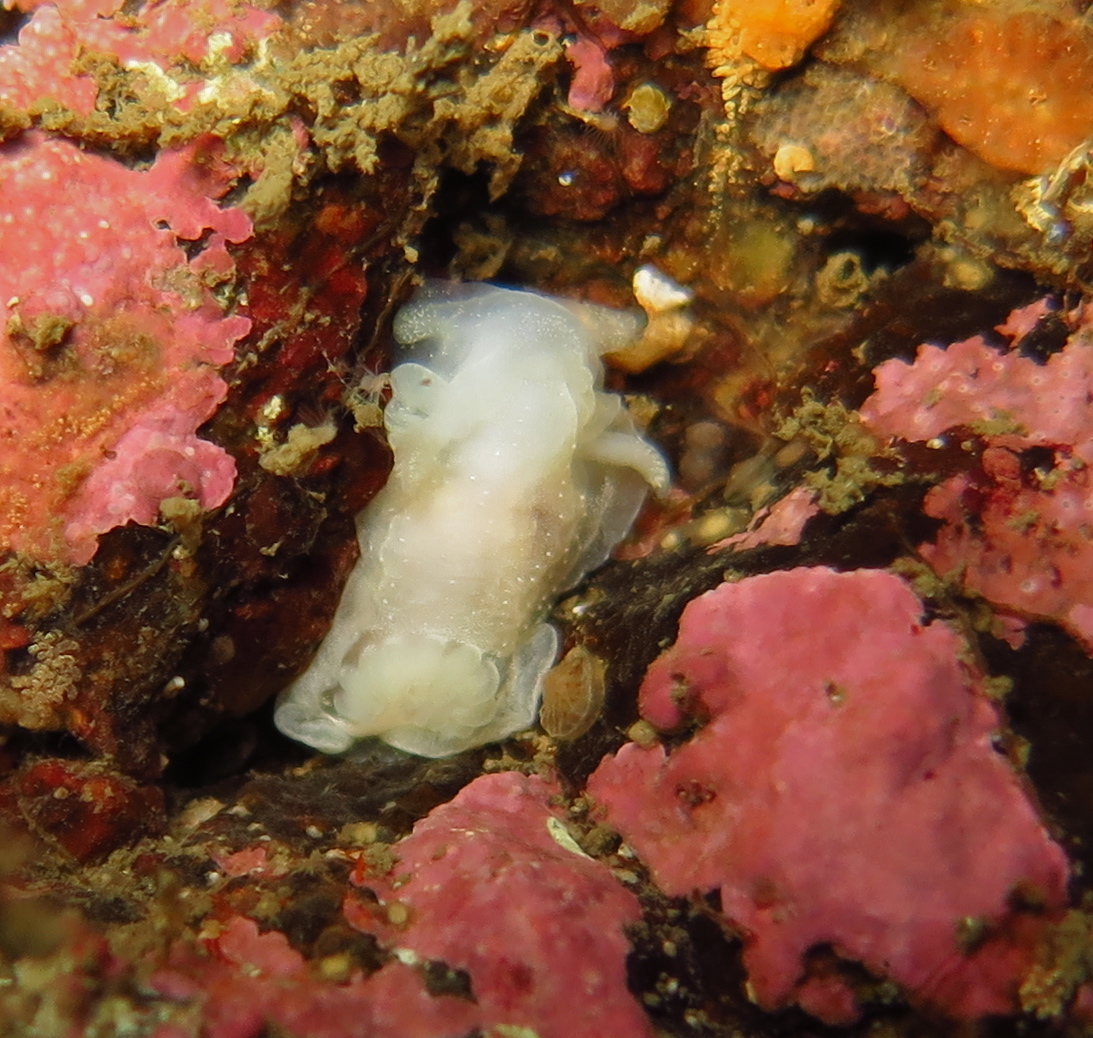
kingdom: Animalia
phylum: Mollusca
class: Gastropoda
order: Nudibranchia
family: Goniodorididae
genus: Okenia
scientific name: Okenia
